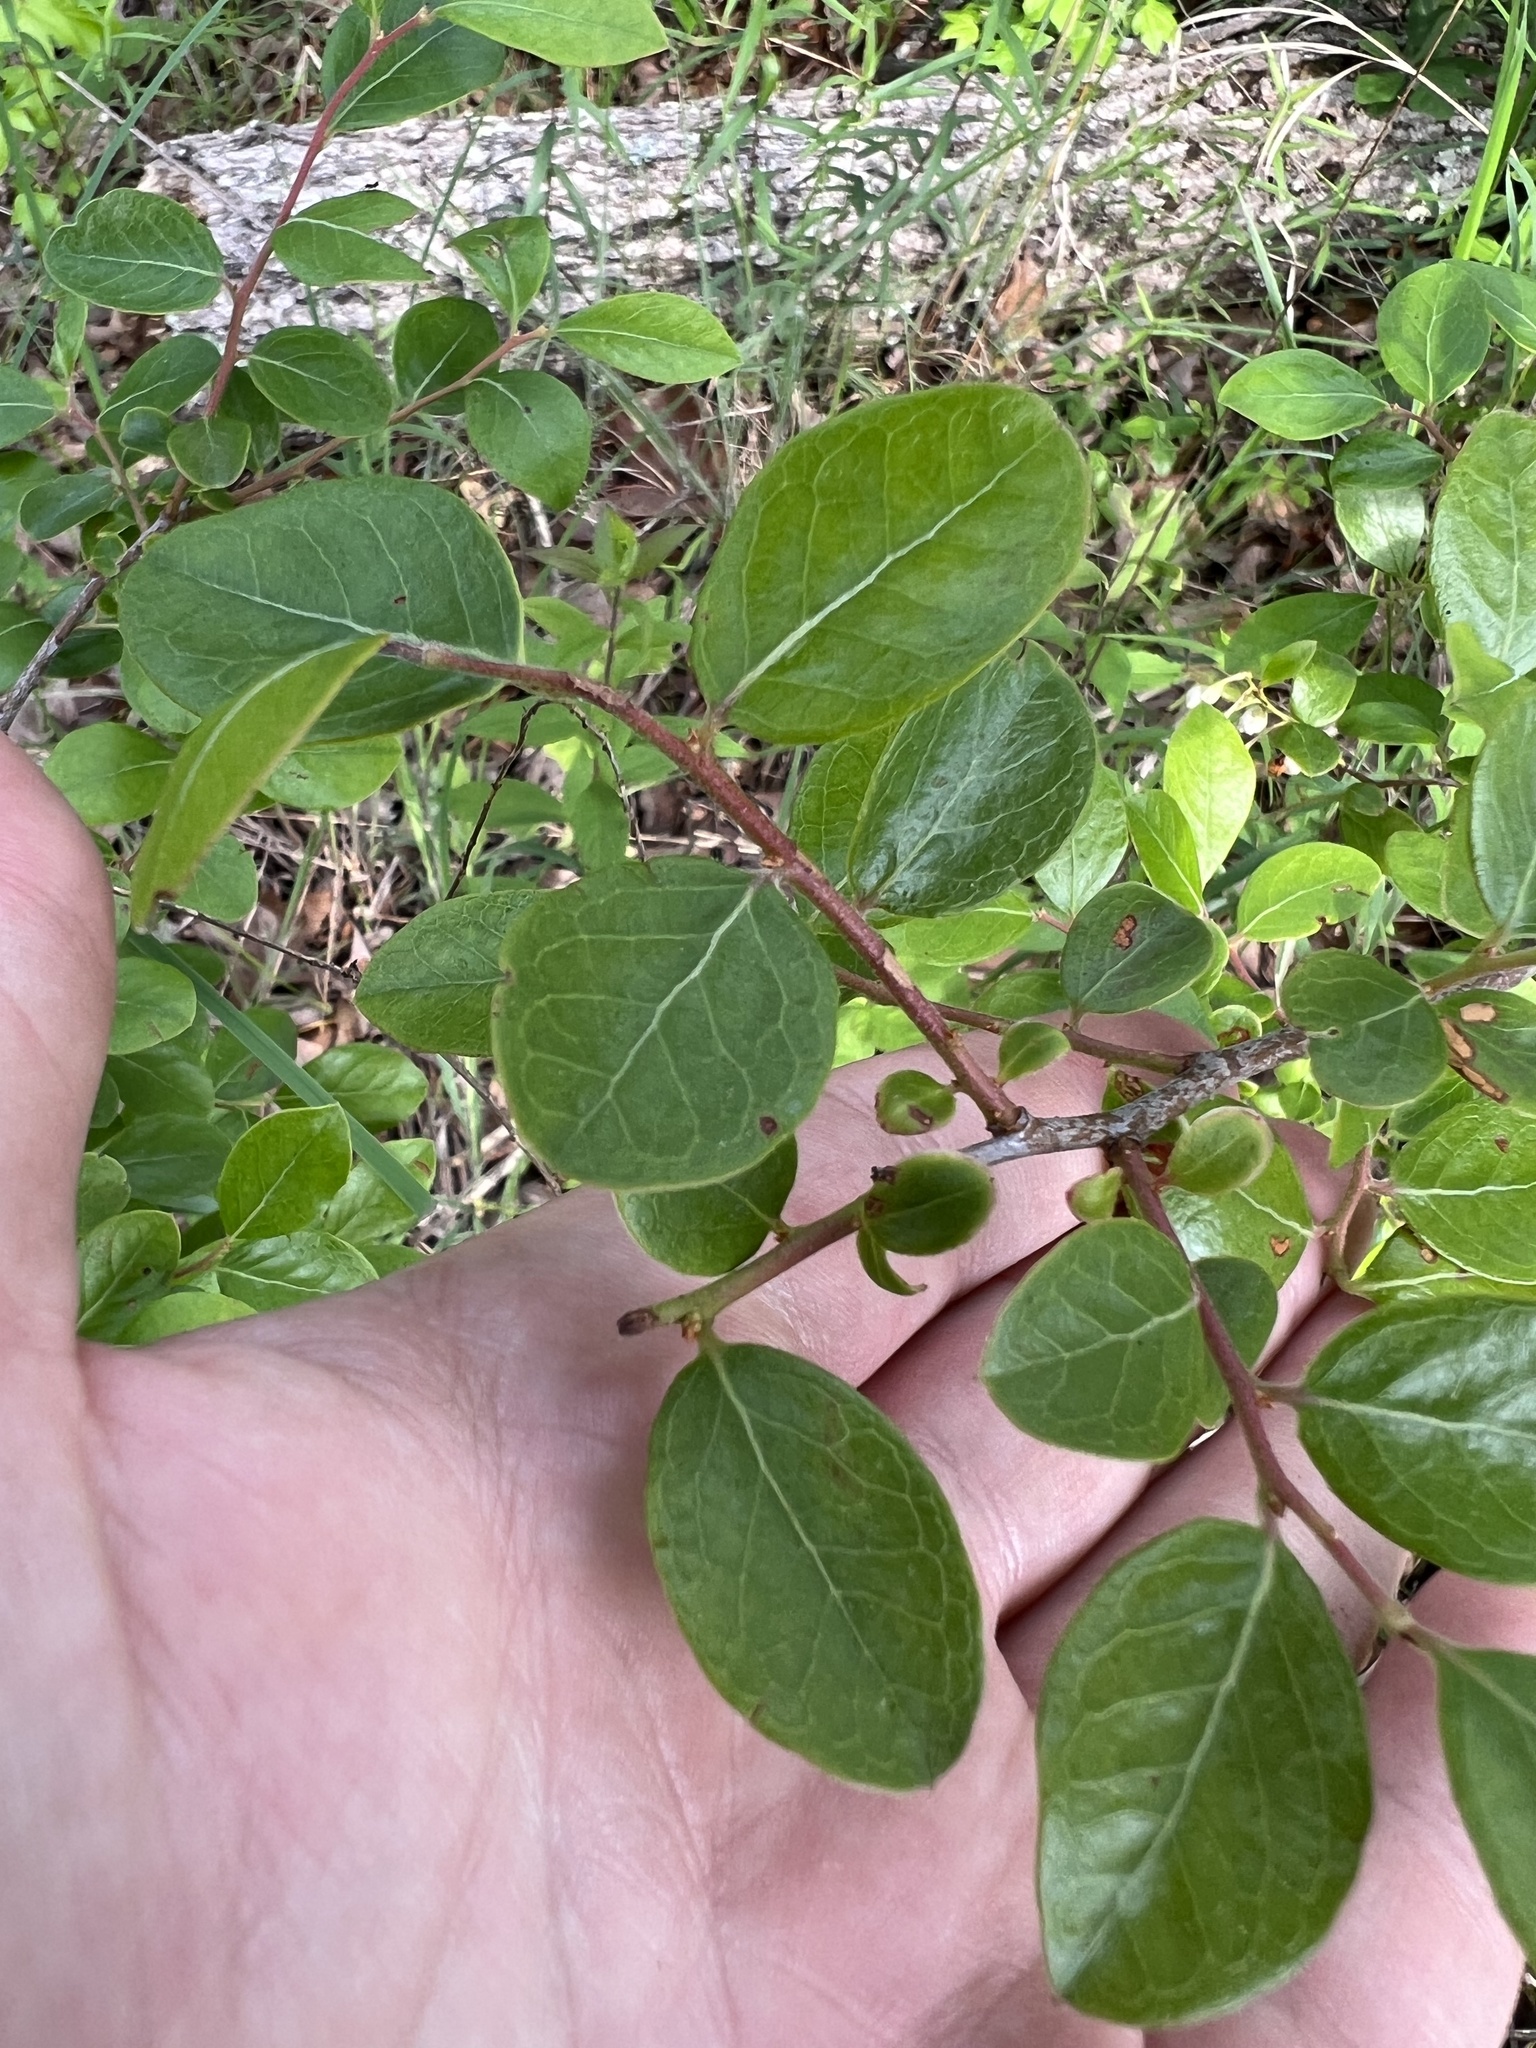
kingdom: Plantae
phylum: Tracheophyta
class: Magnoliopsida
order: Ericales
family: Ericaceae
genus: Vaccinium
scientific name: Vaccinium arboreum
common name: Farkleberry
